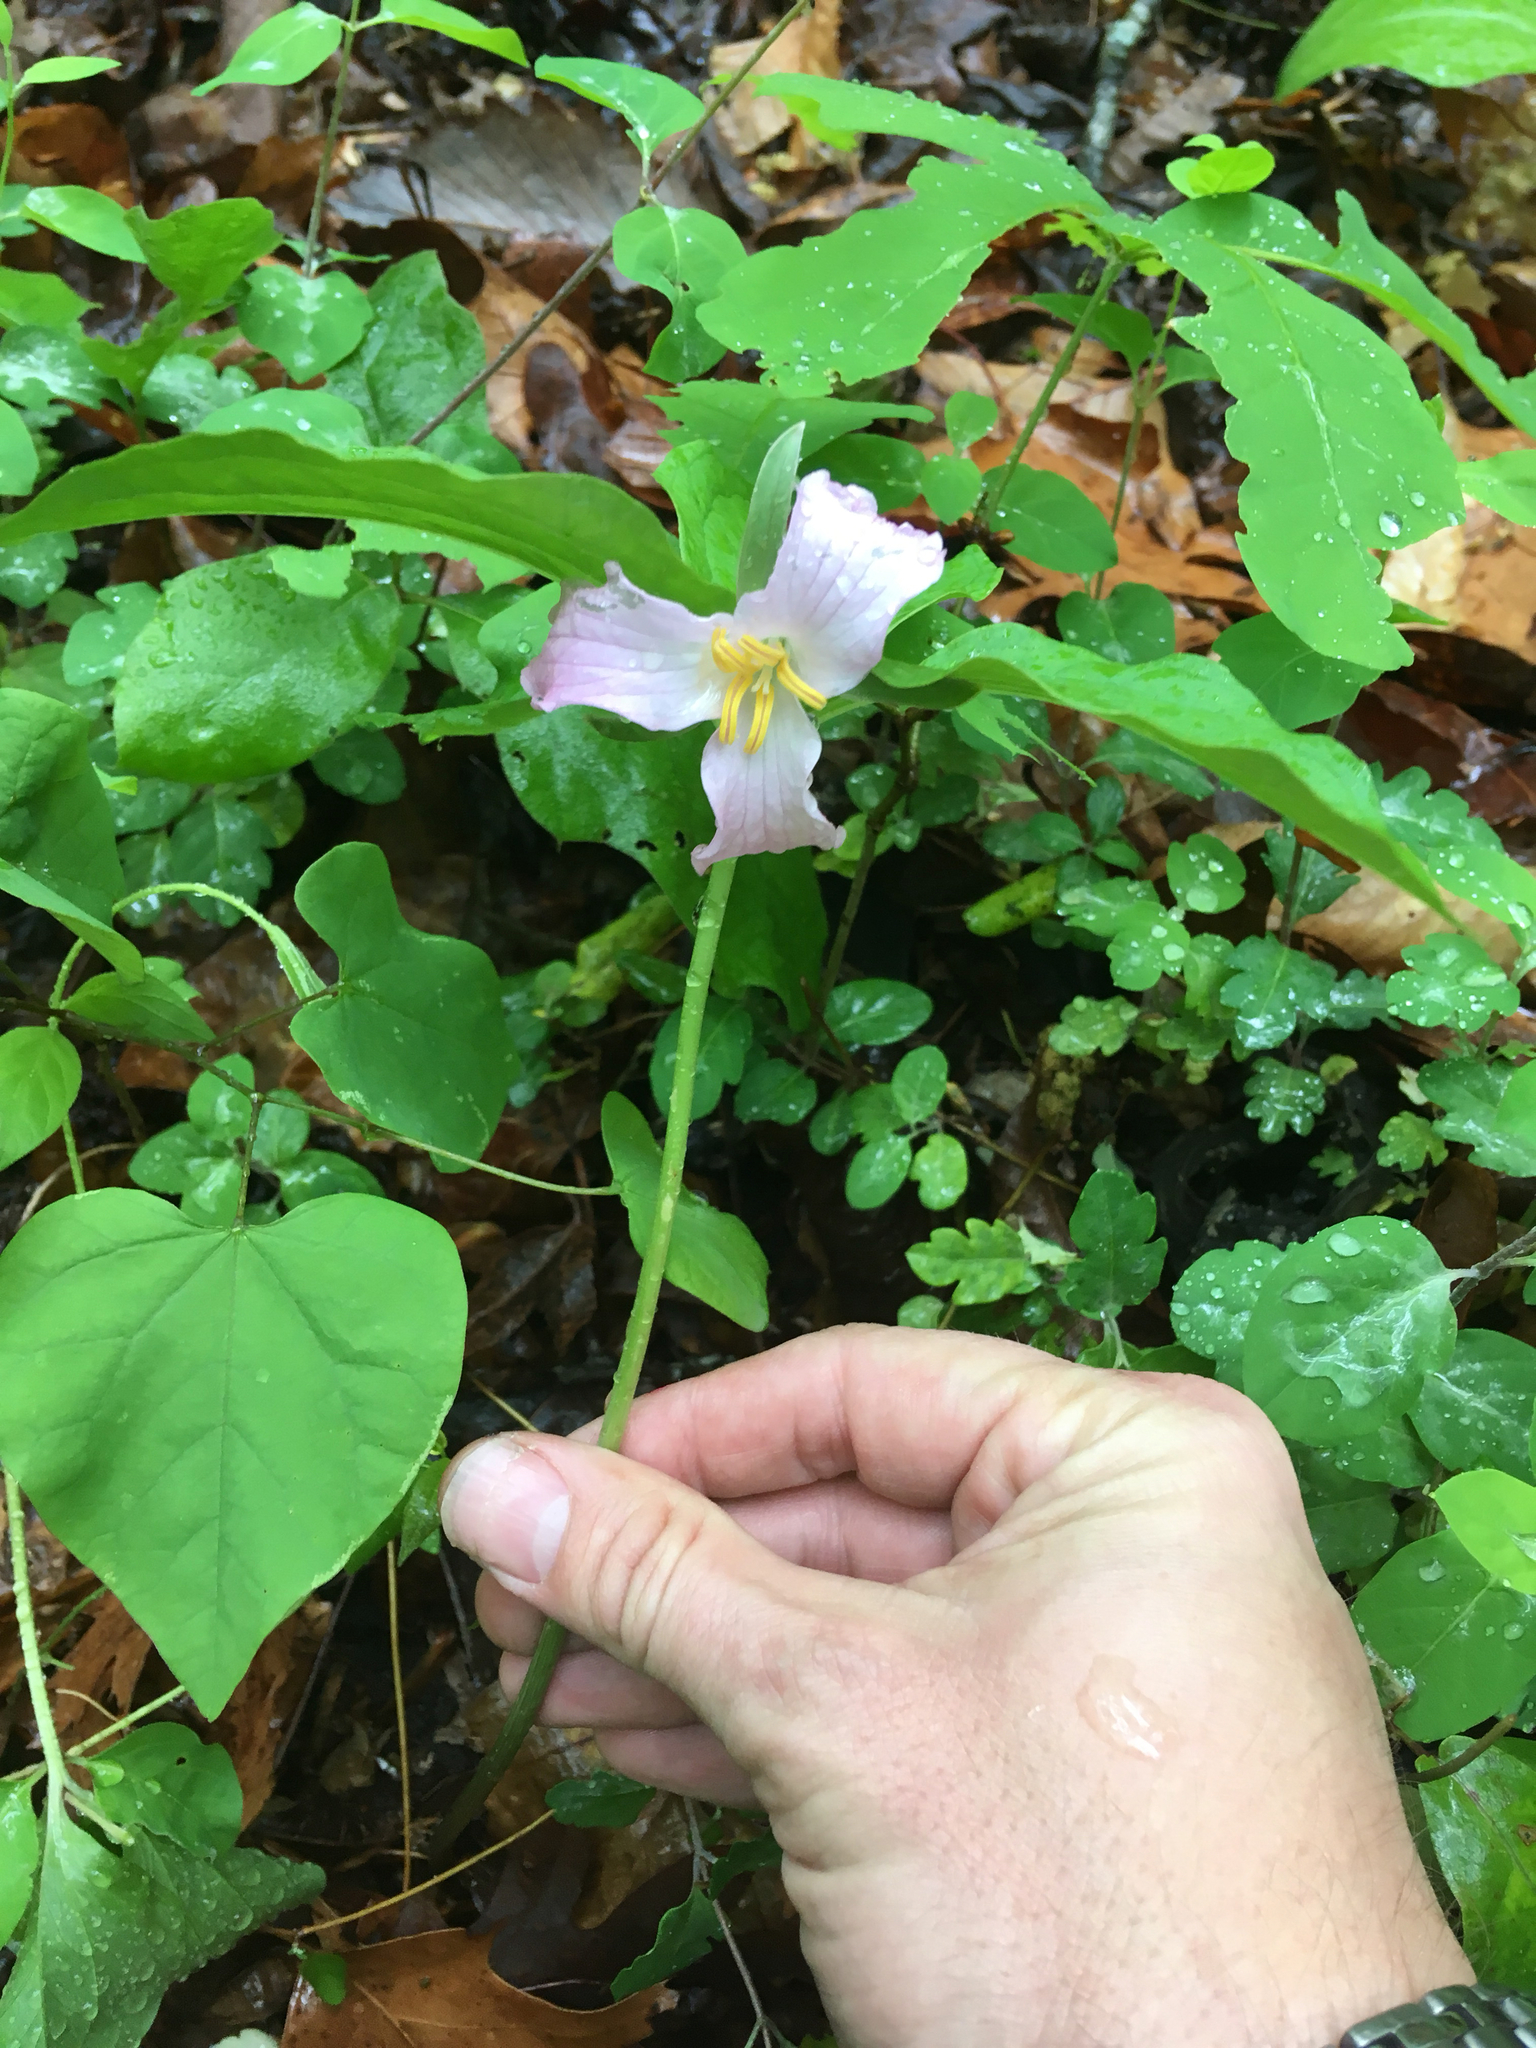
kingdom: Plantae
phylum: Tracheophyta
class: Liliopsida
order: Liliales
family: Melanthiaceae
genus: Trillium
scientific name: Trillium catesbaei
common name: Bashful trillium
